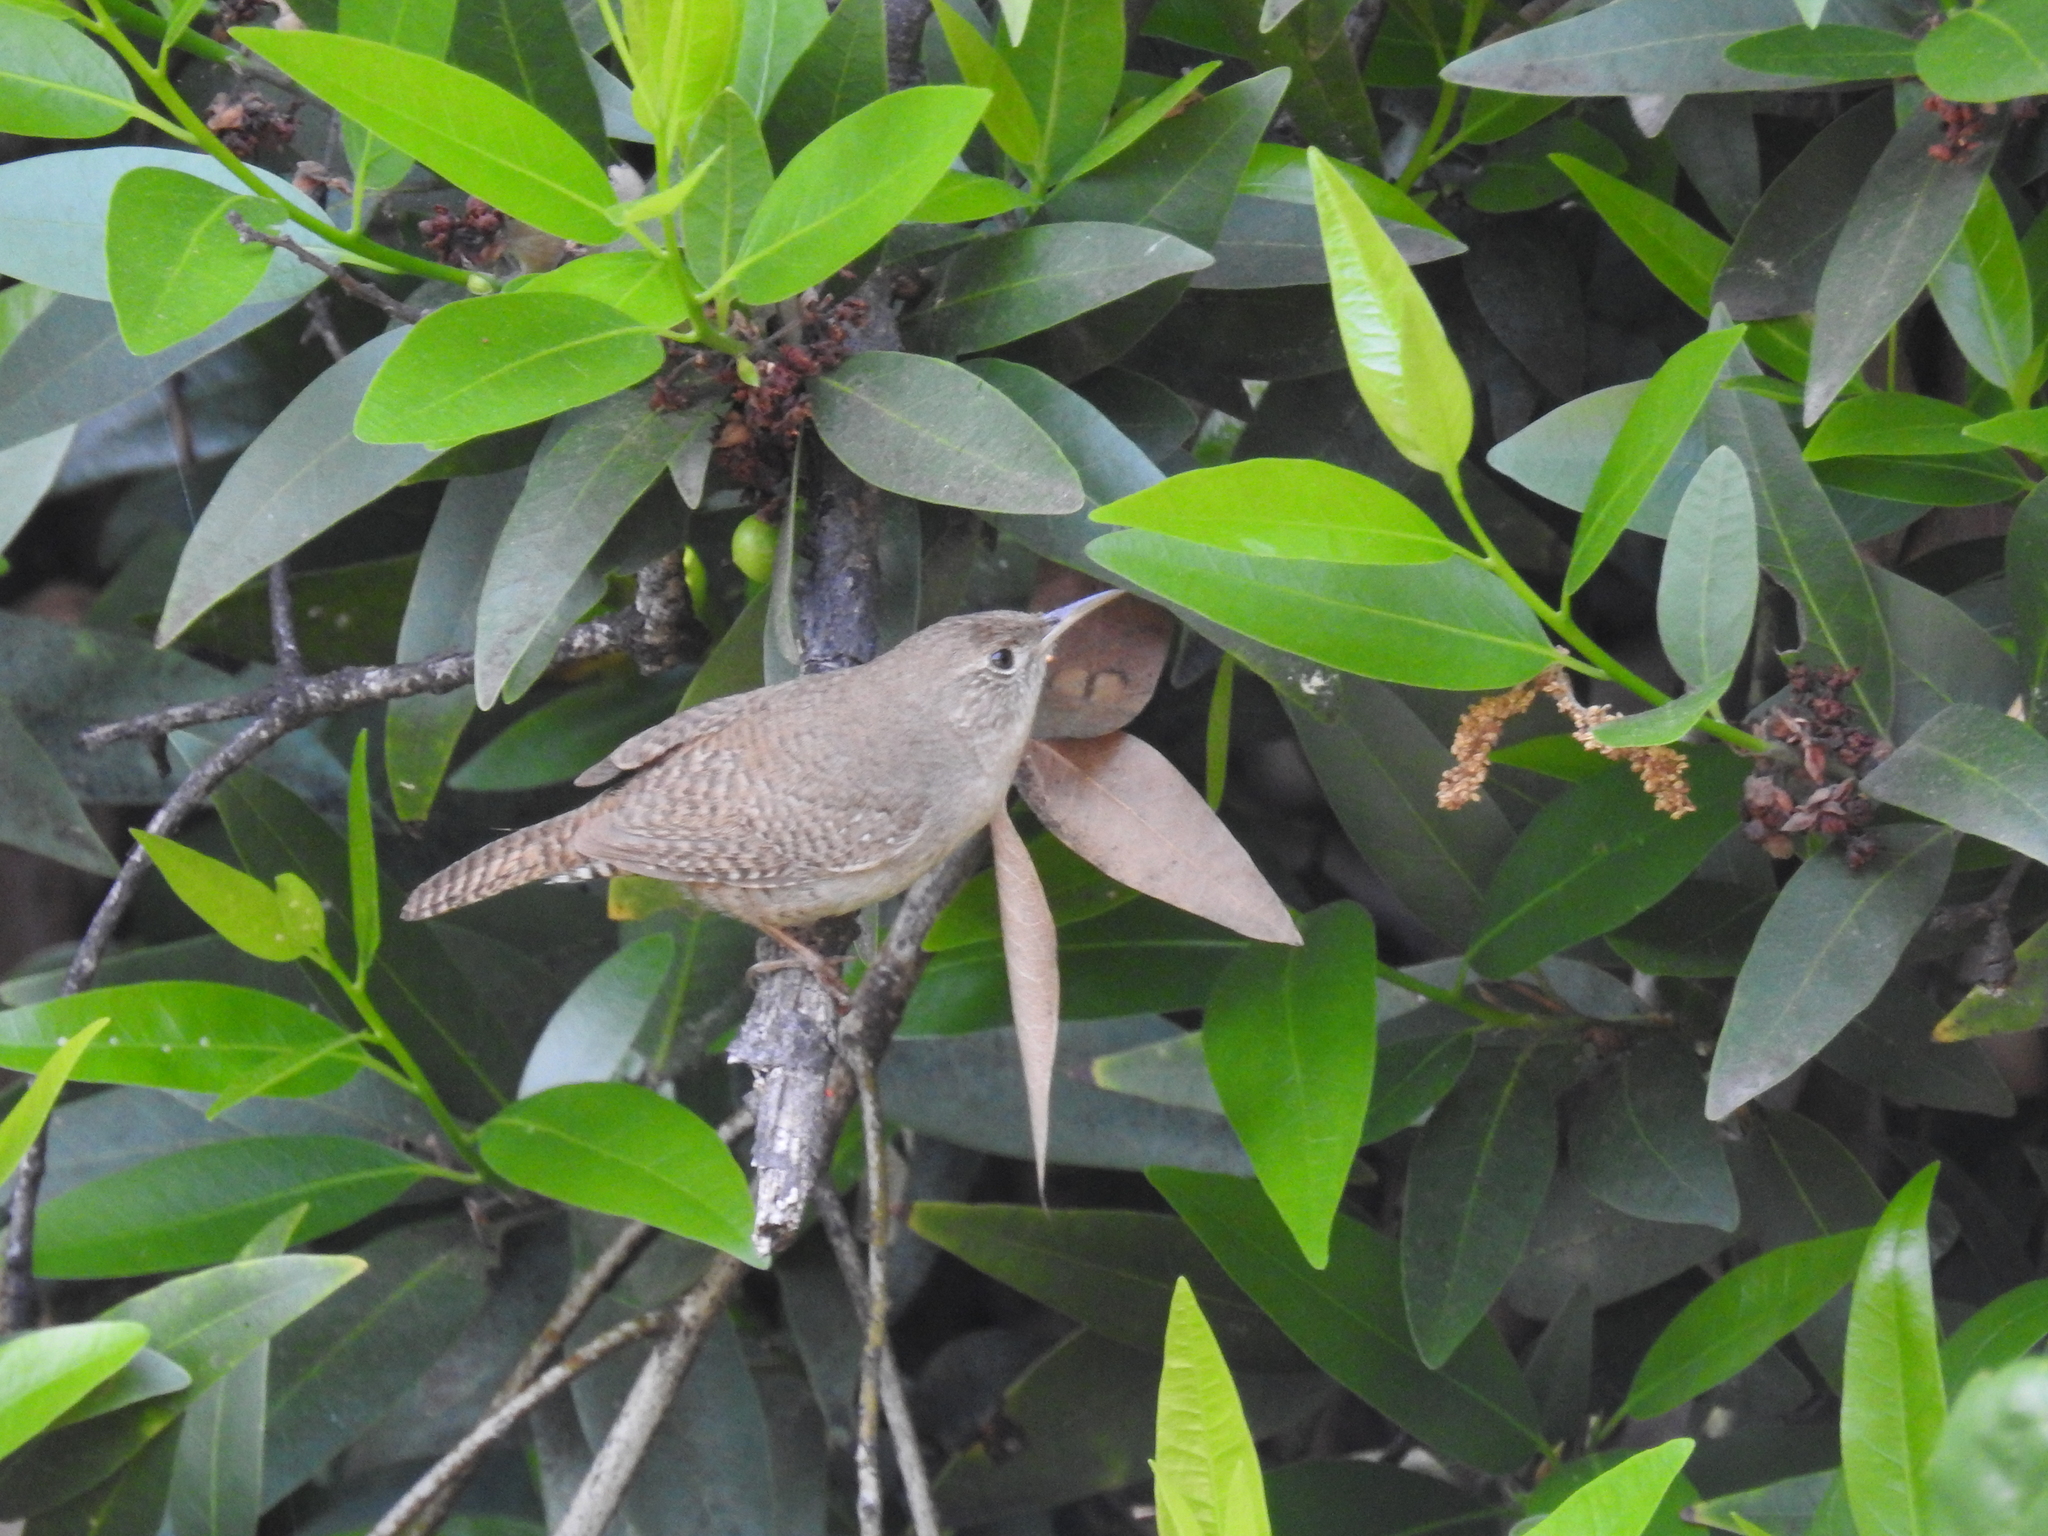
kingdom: Animalia
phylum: Chordata
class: Aves
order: Passeriformes
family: Troglodytidae
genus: Troglodytes
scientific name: Troglodytes aedon
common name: House wren
